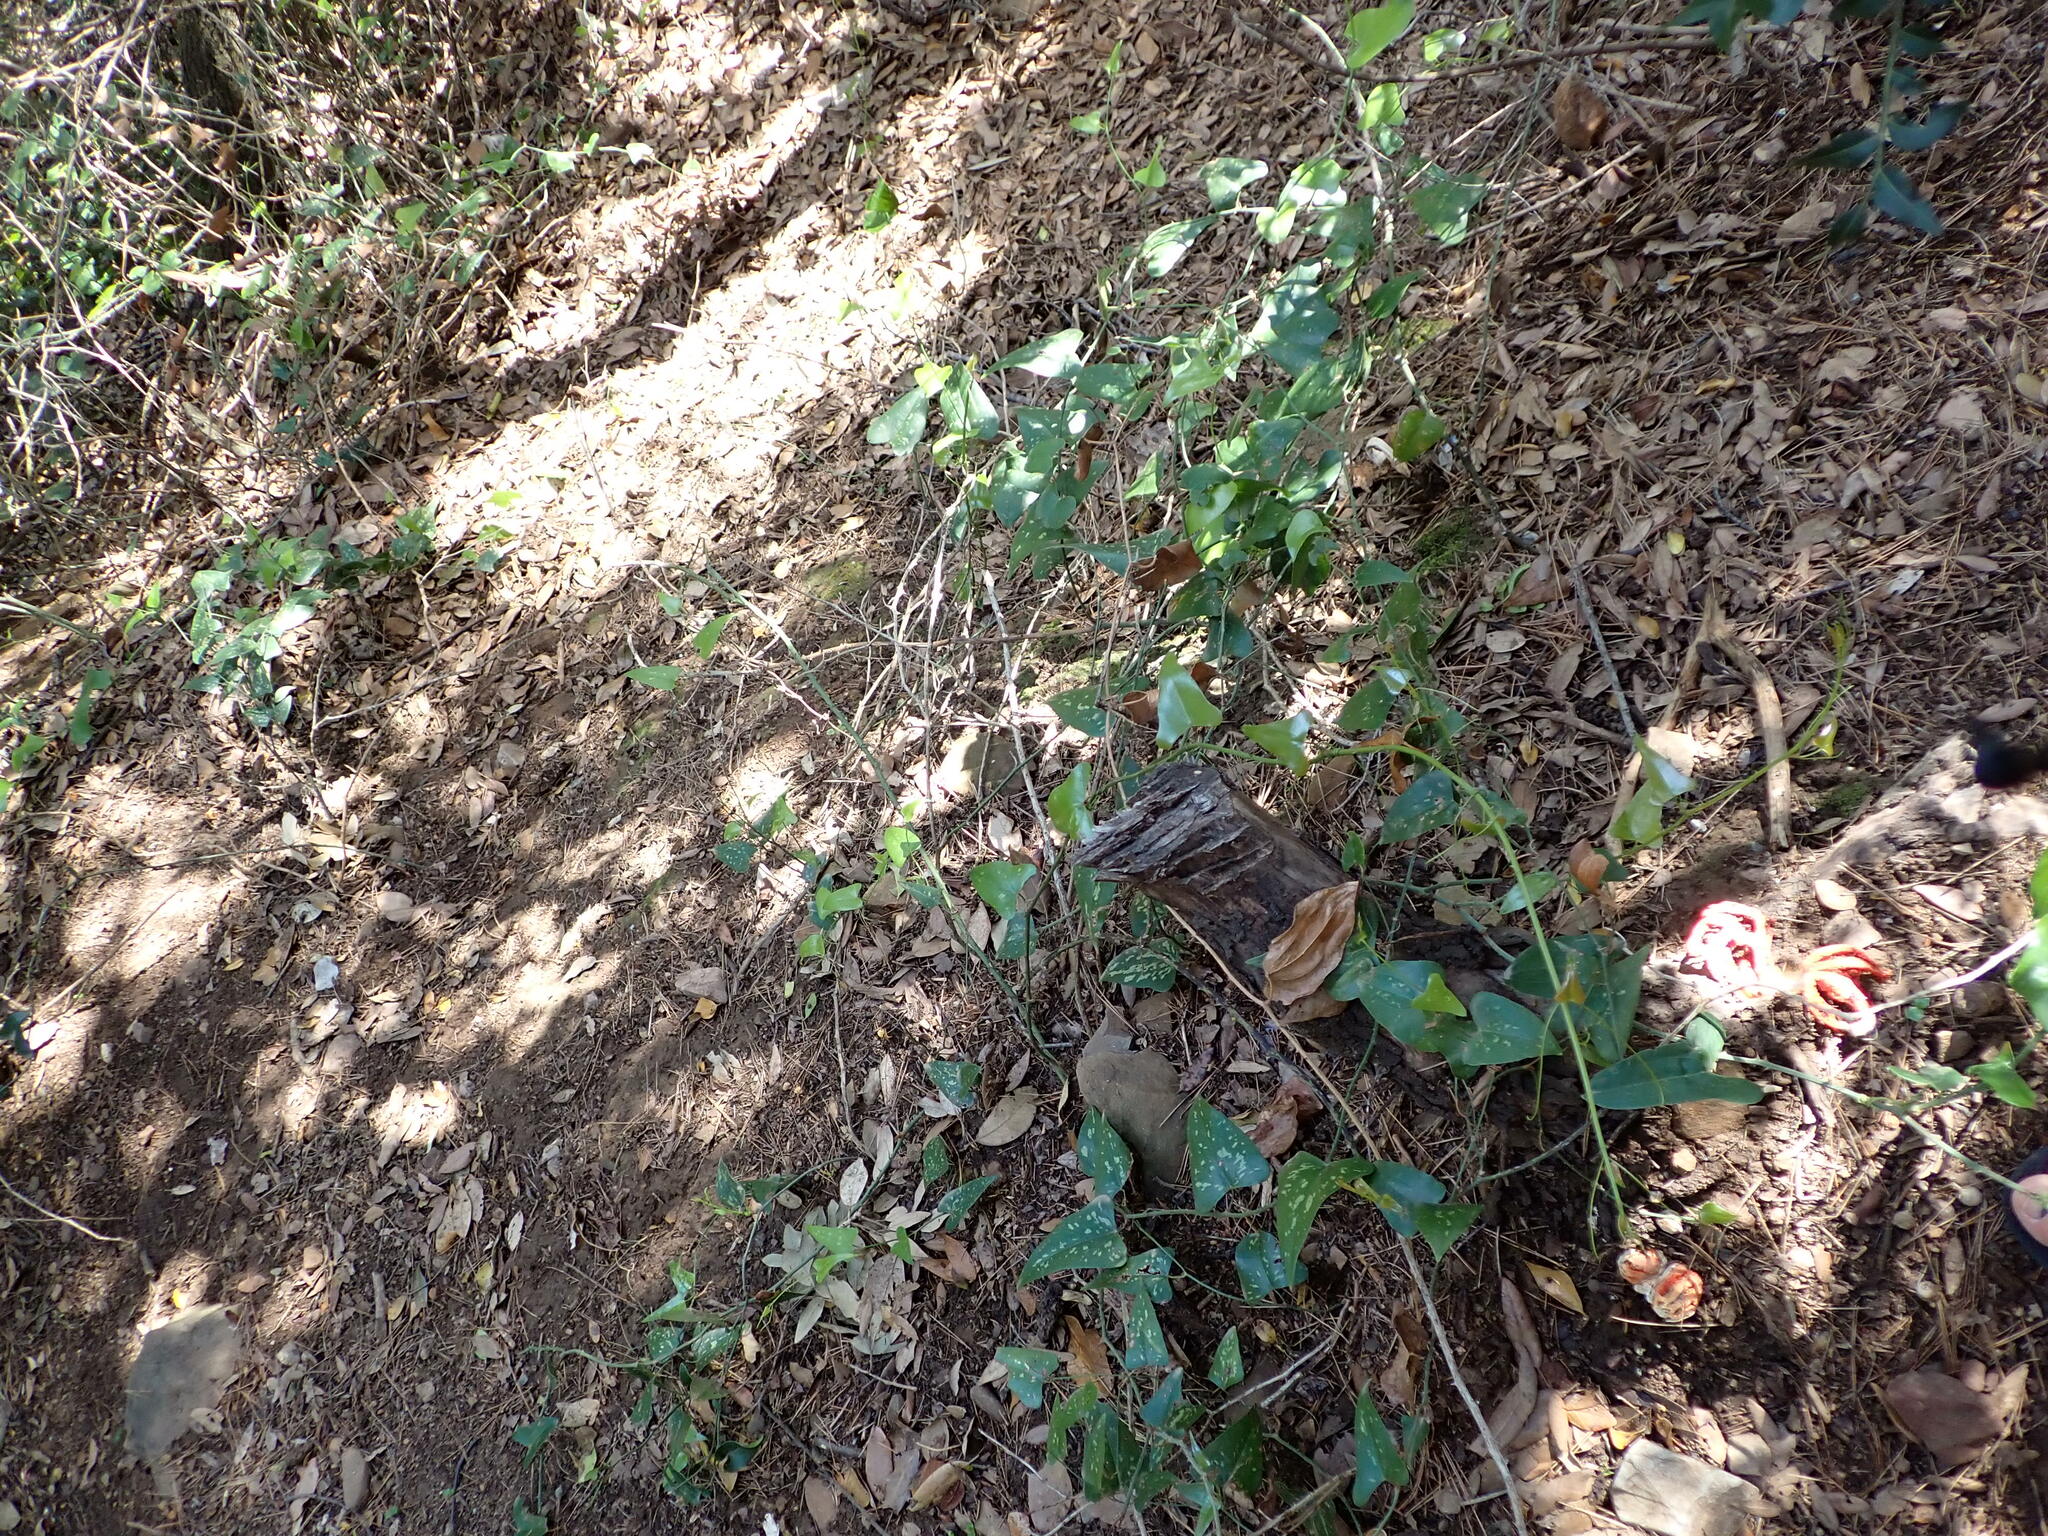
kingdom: Plantae
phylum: Tracheophyta
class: Liliopsida
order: Liliales
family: Smilacaceae
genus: Smilax
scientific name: Smilax aspera
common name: Common smilax
